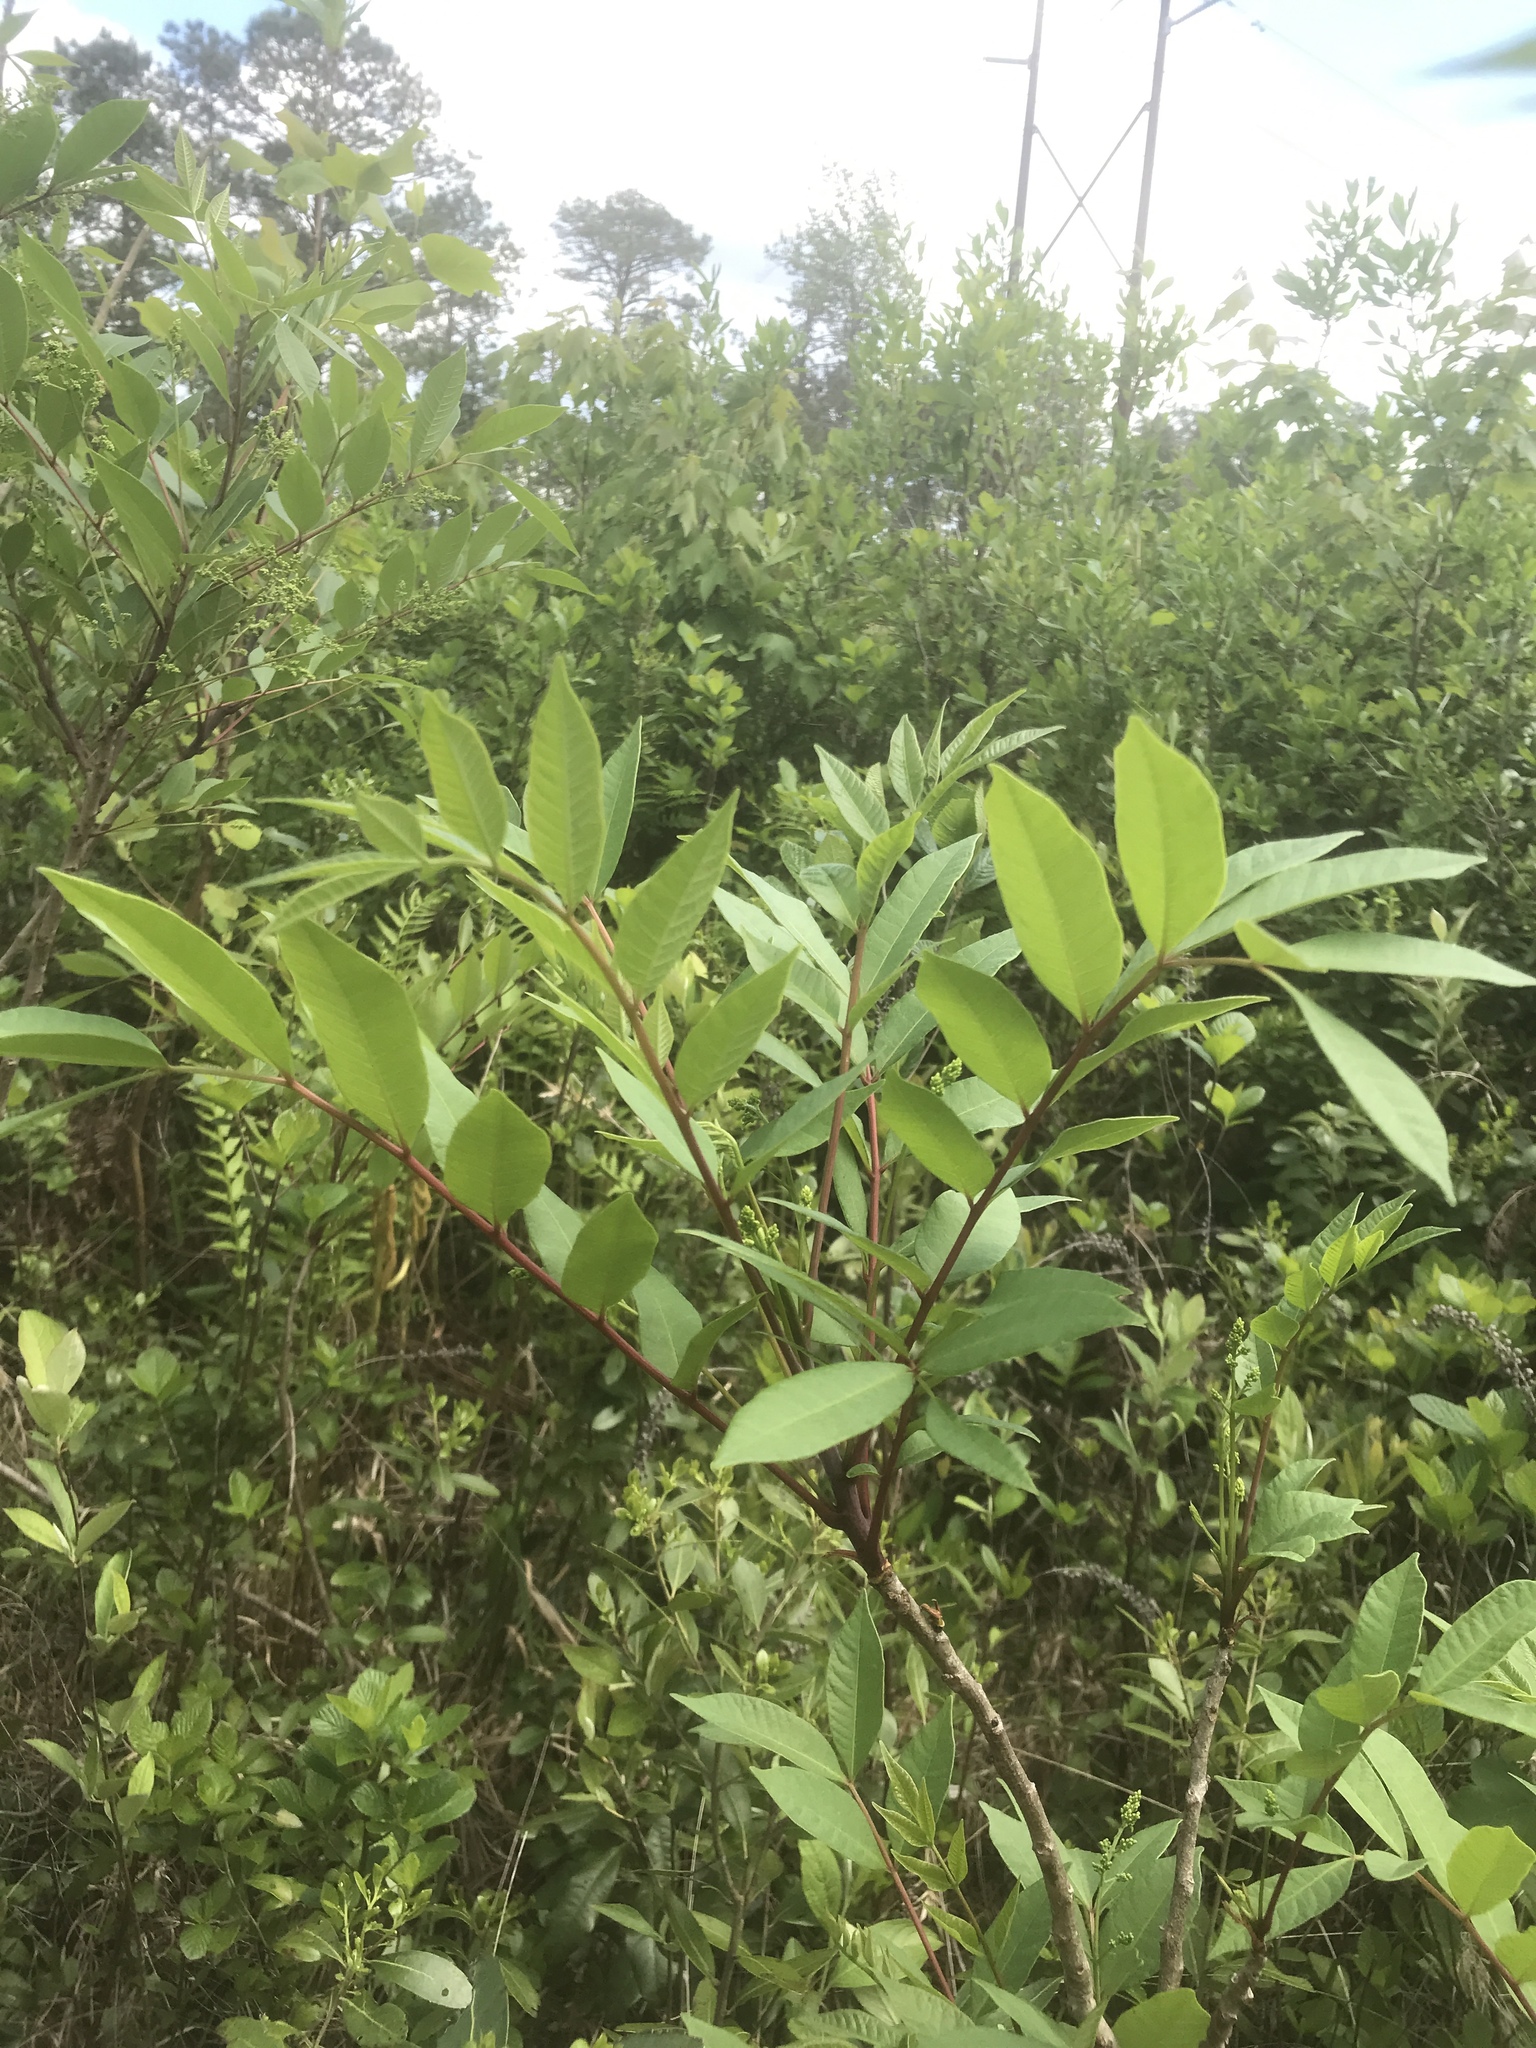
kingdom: Plantae
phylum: Tracheophyta
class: Magnoliopsida
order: Sapindales
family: Anacardiaceae
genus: Toxicodendron
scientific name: Toxicodendron vernix
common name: Poison sumac
